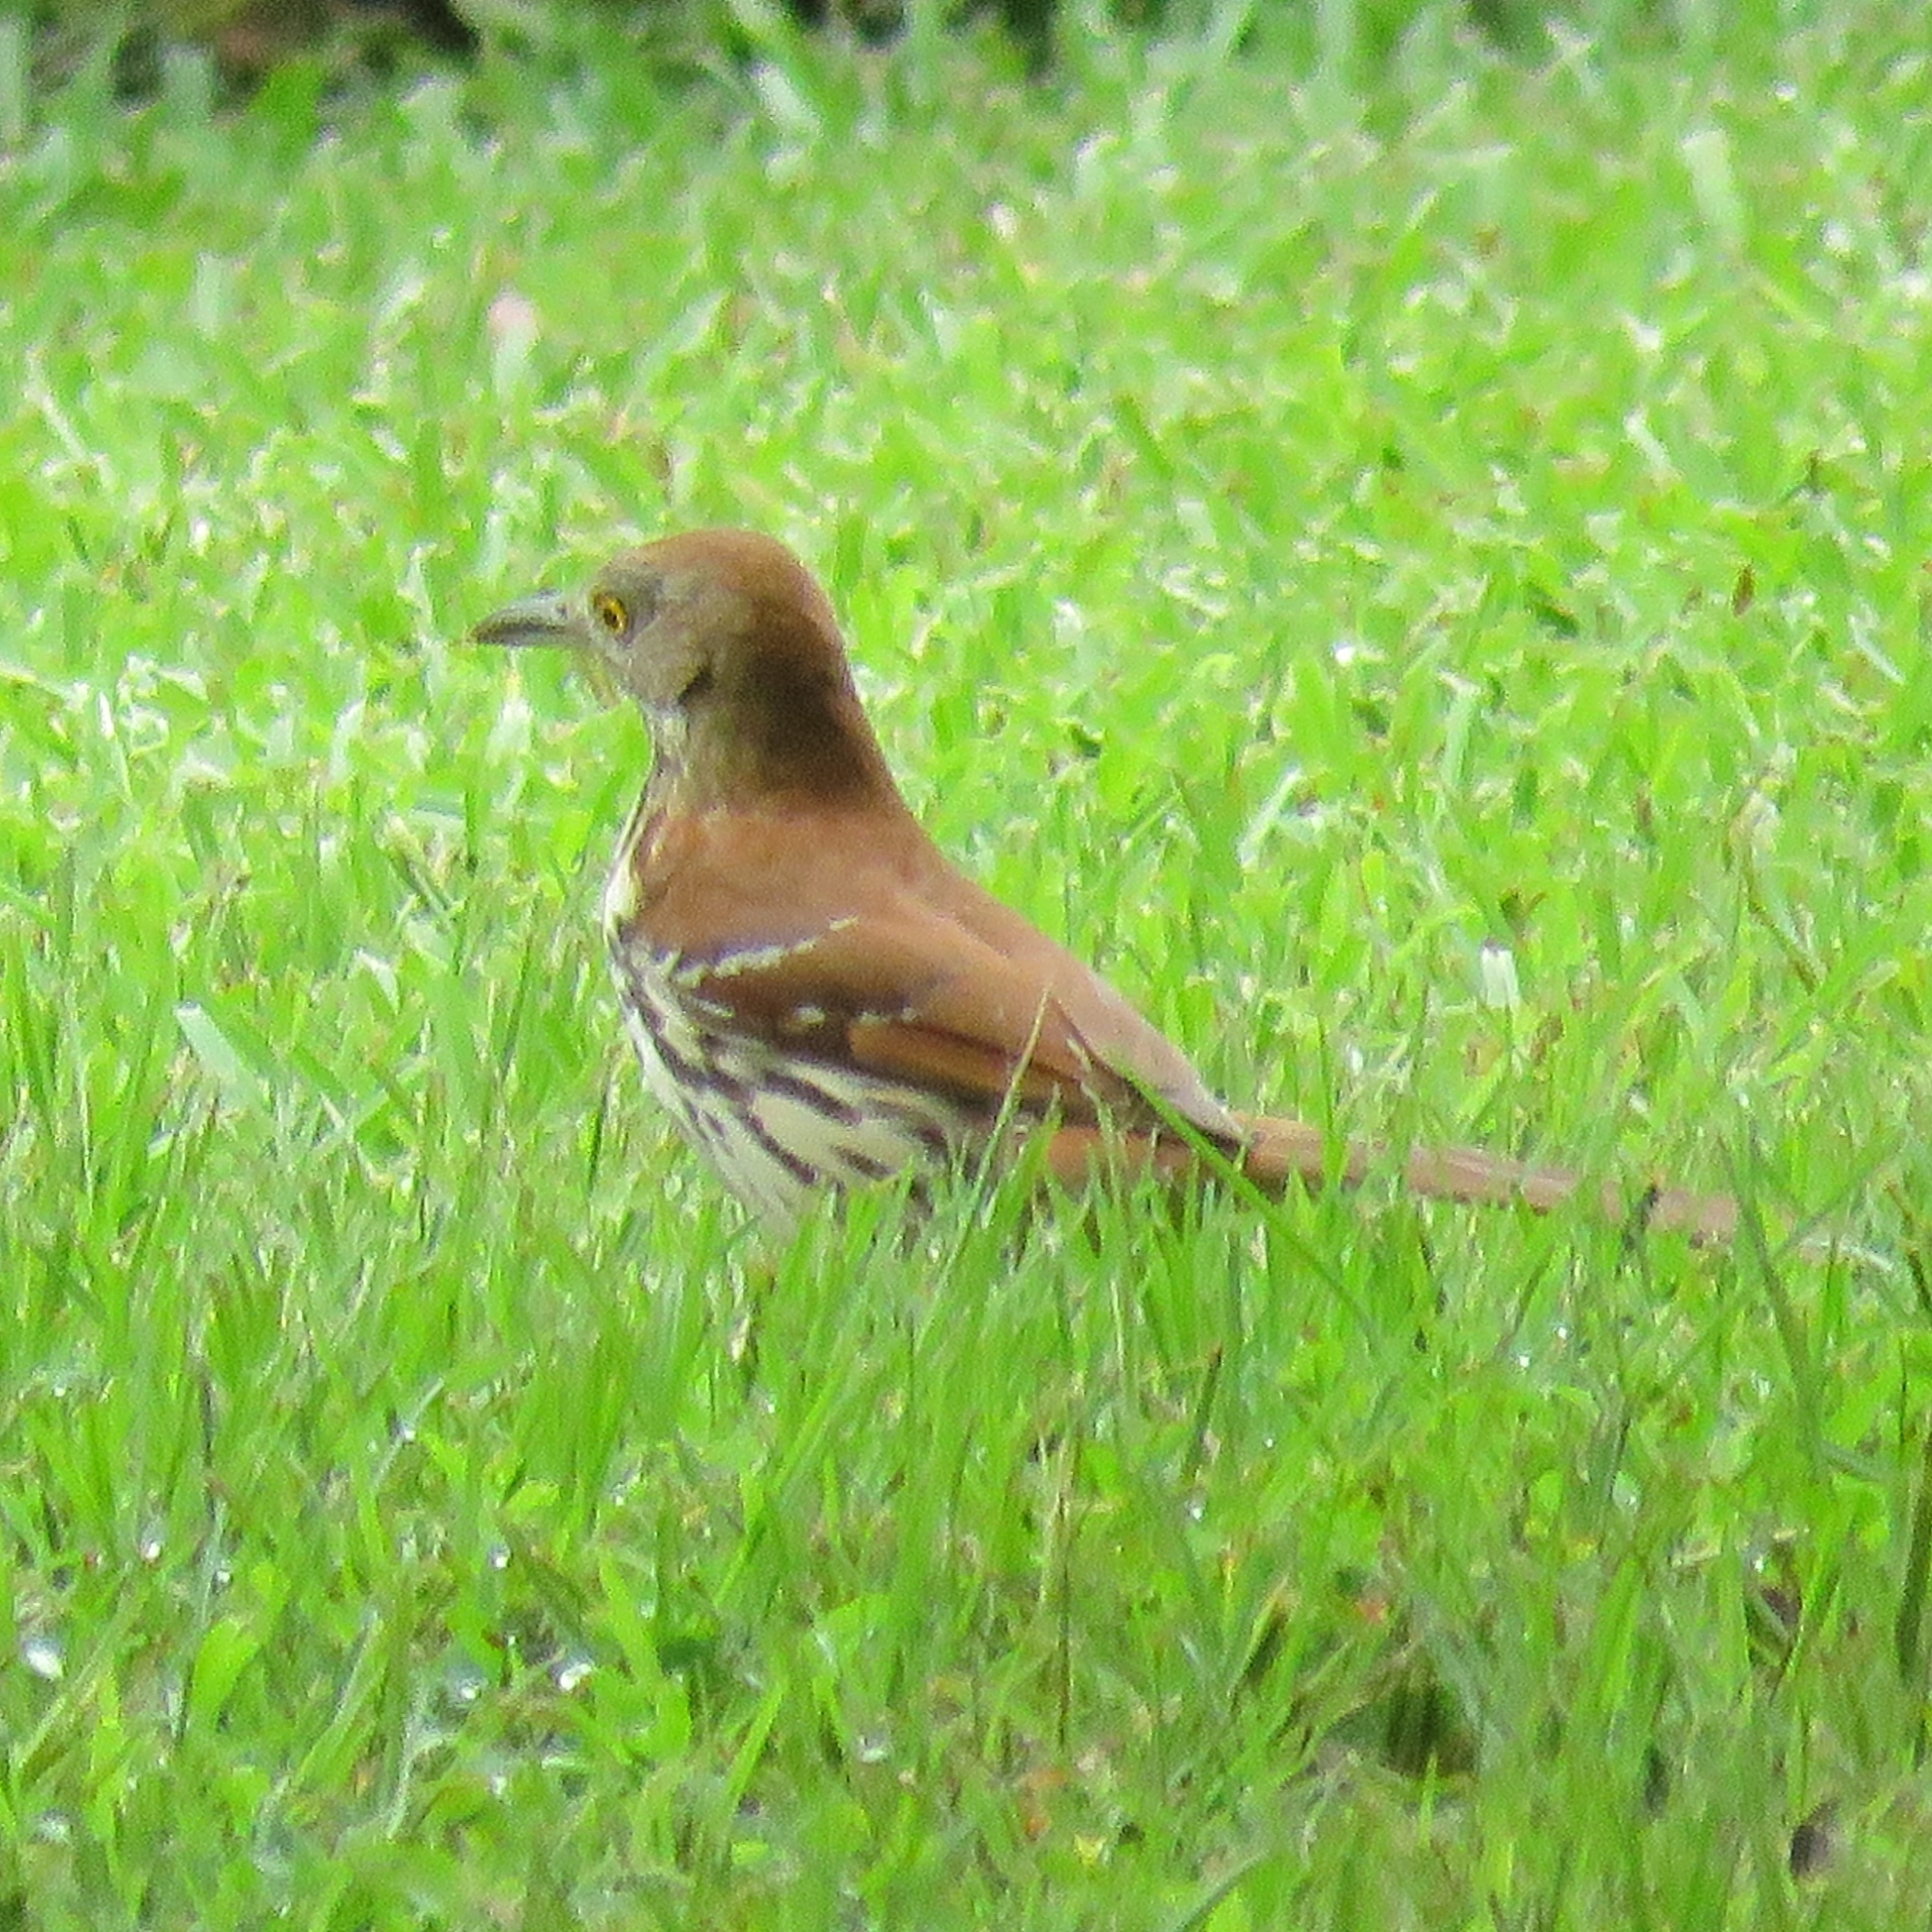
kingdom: Animalia
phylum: Chordata
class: Aves
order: Passeriformes
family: Mimidae
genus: Toxostoma
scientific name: Toxostoma rufum
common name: Brown thrasher
